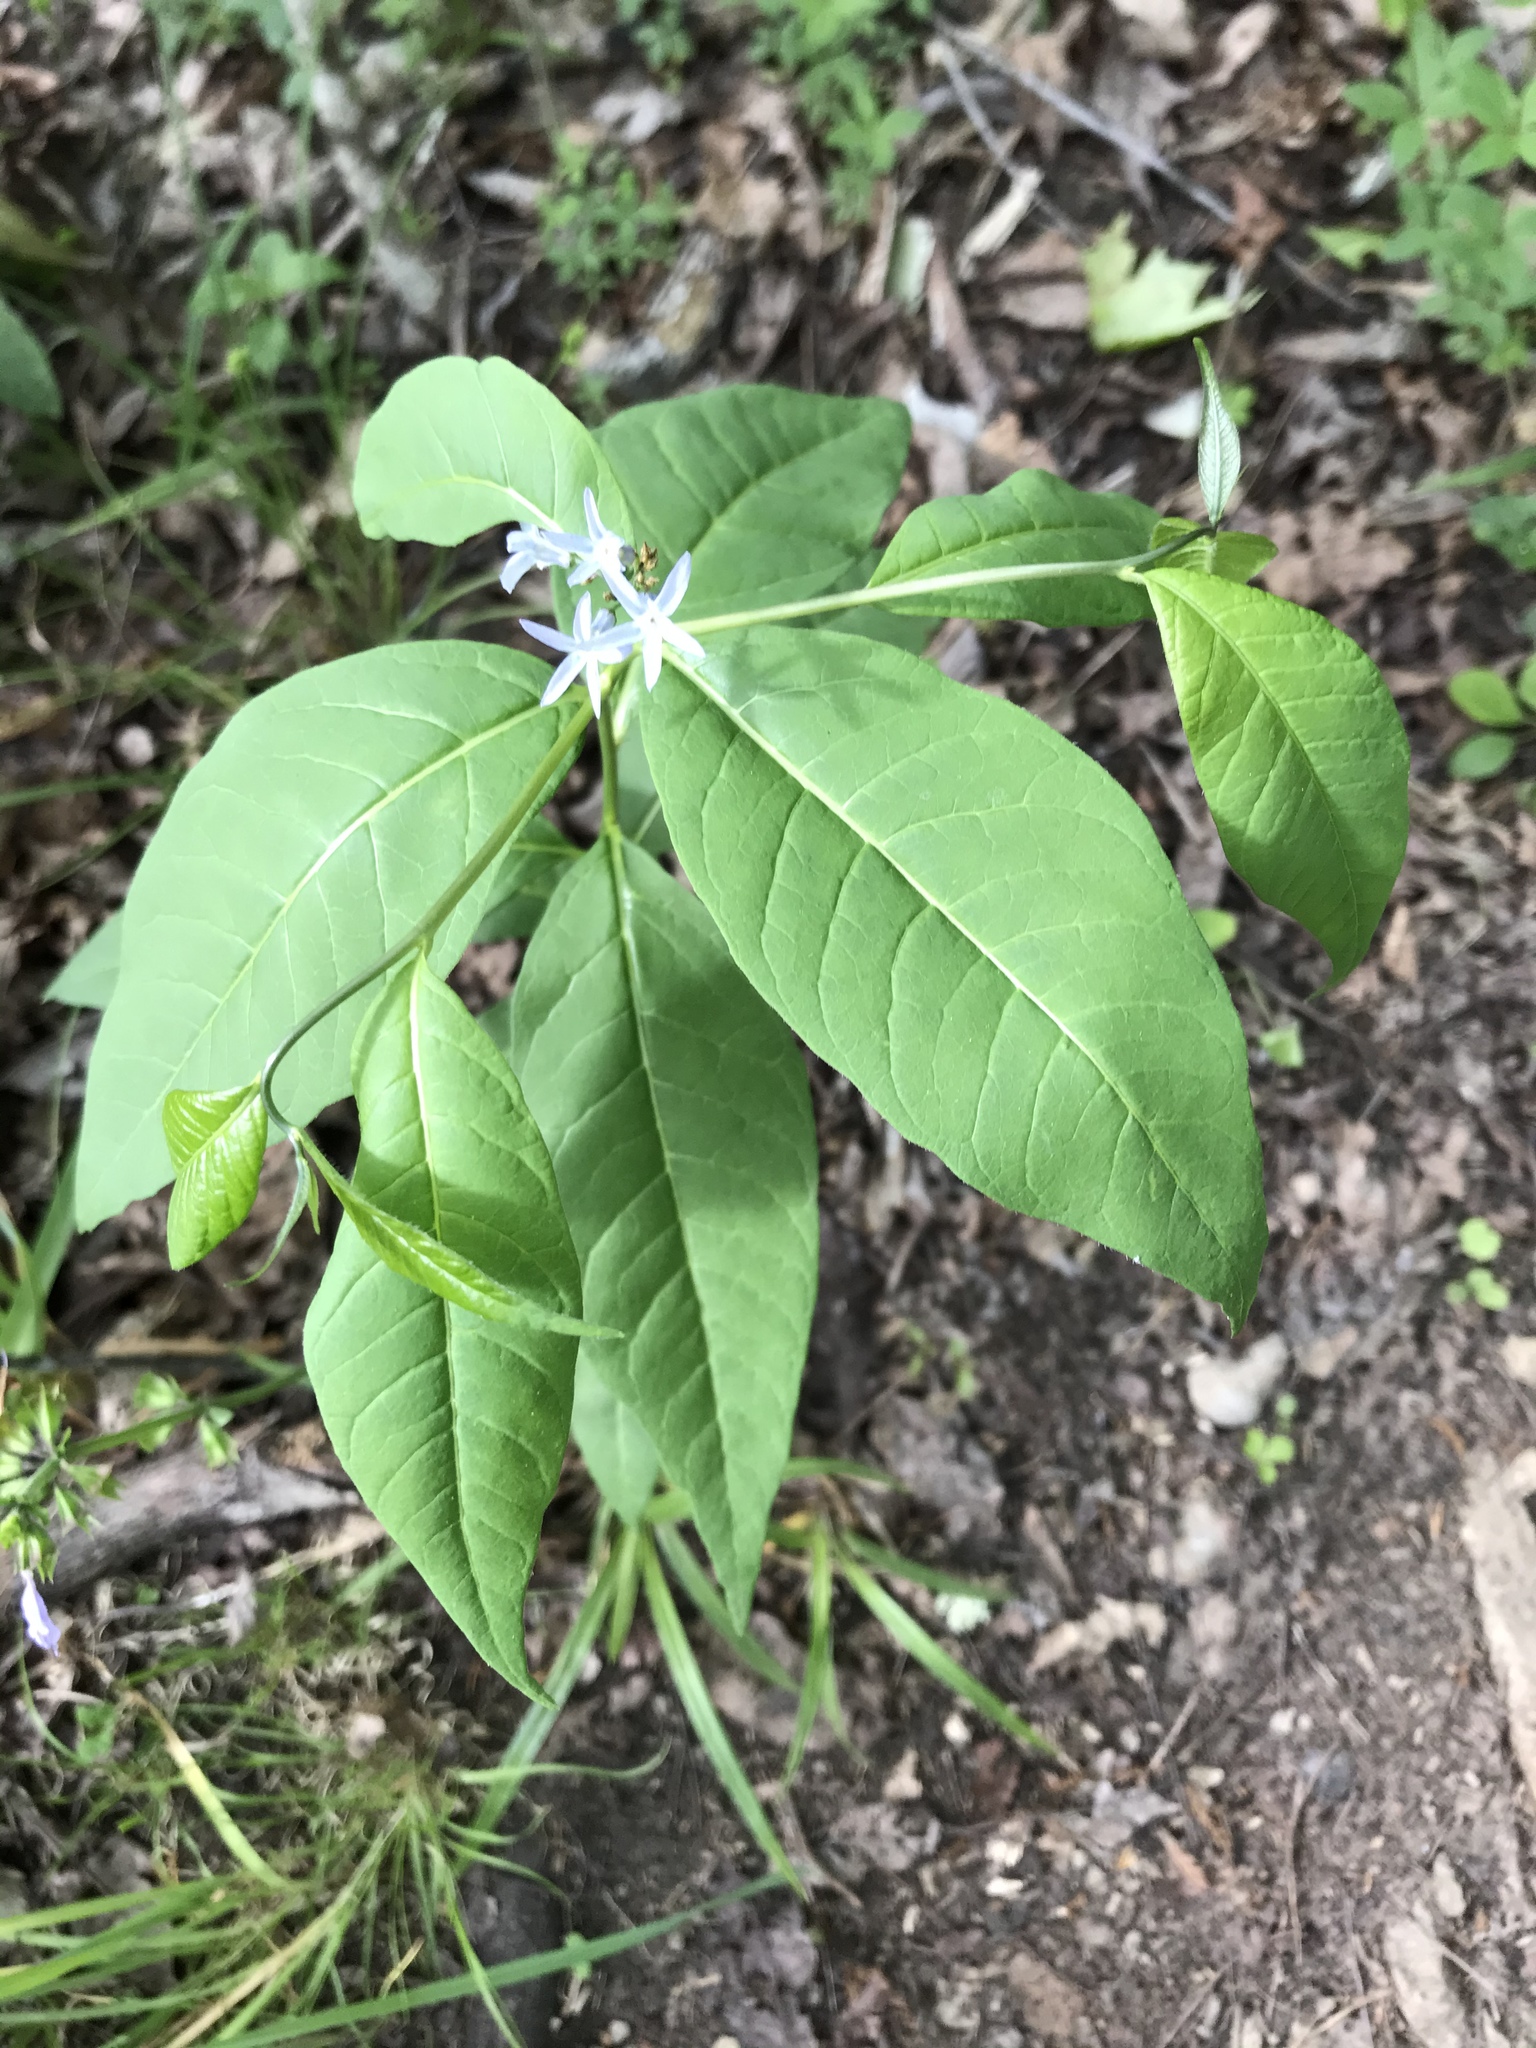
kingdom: Plantae
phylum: Tracheophyta
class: Magnoliopsida
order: Gentianales
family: Apocynaceae
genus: Amsonia
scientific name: Amsonia tabernaemontana
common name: Texas-star
